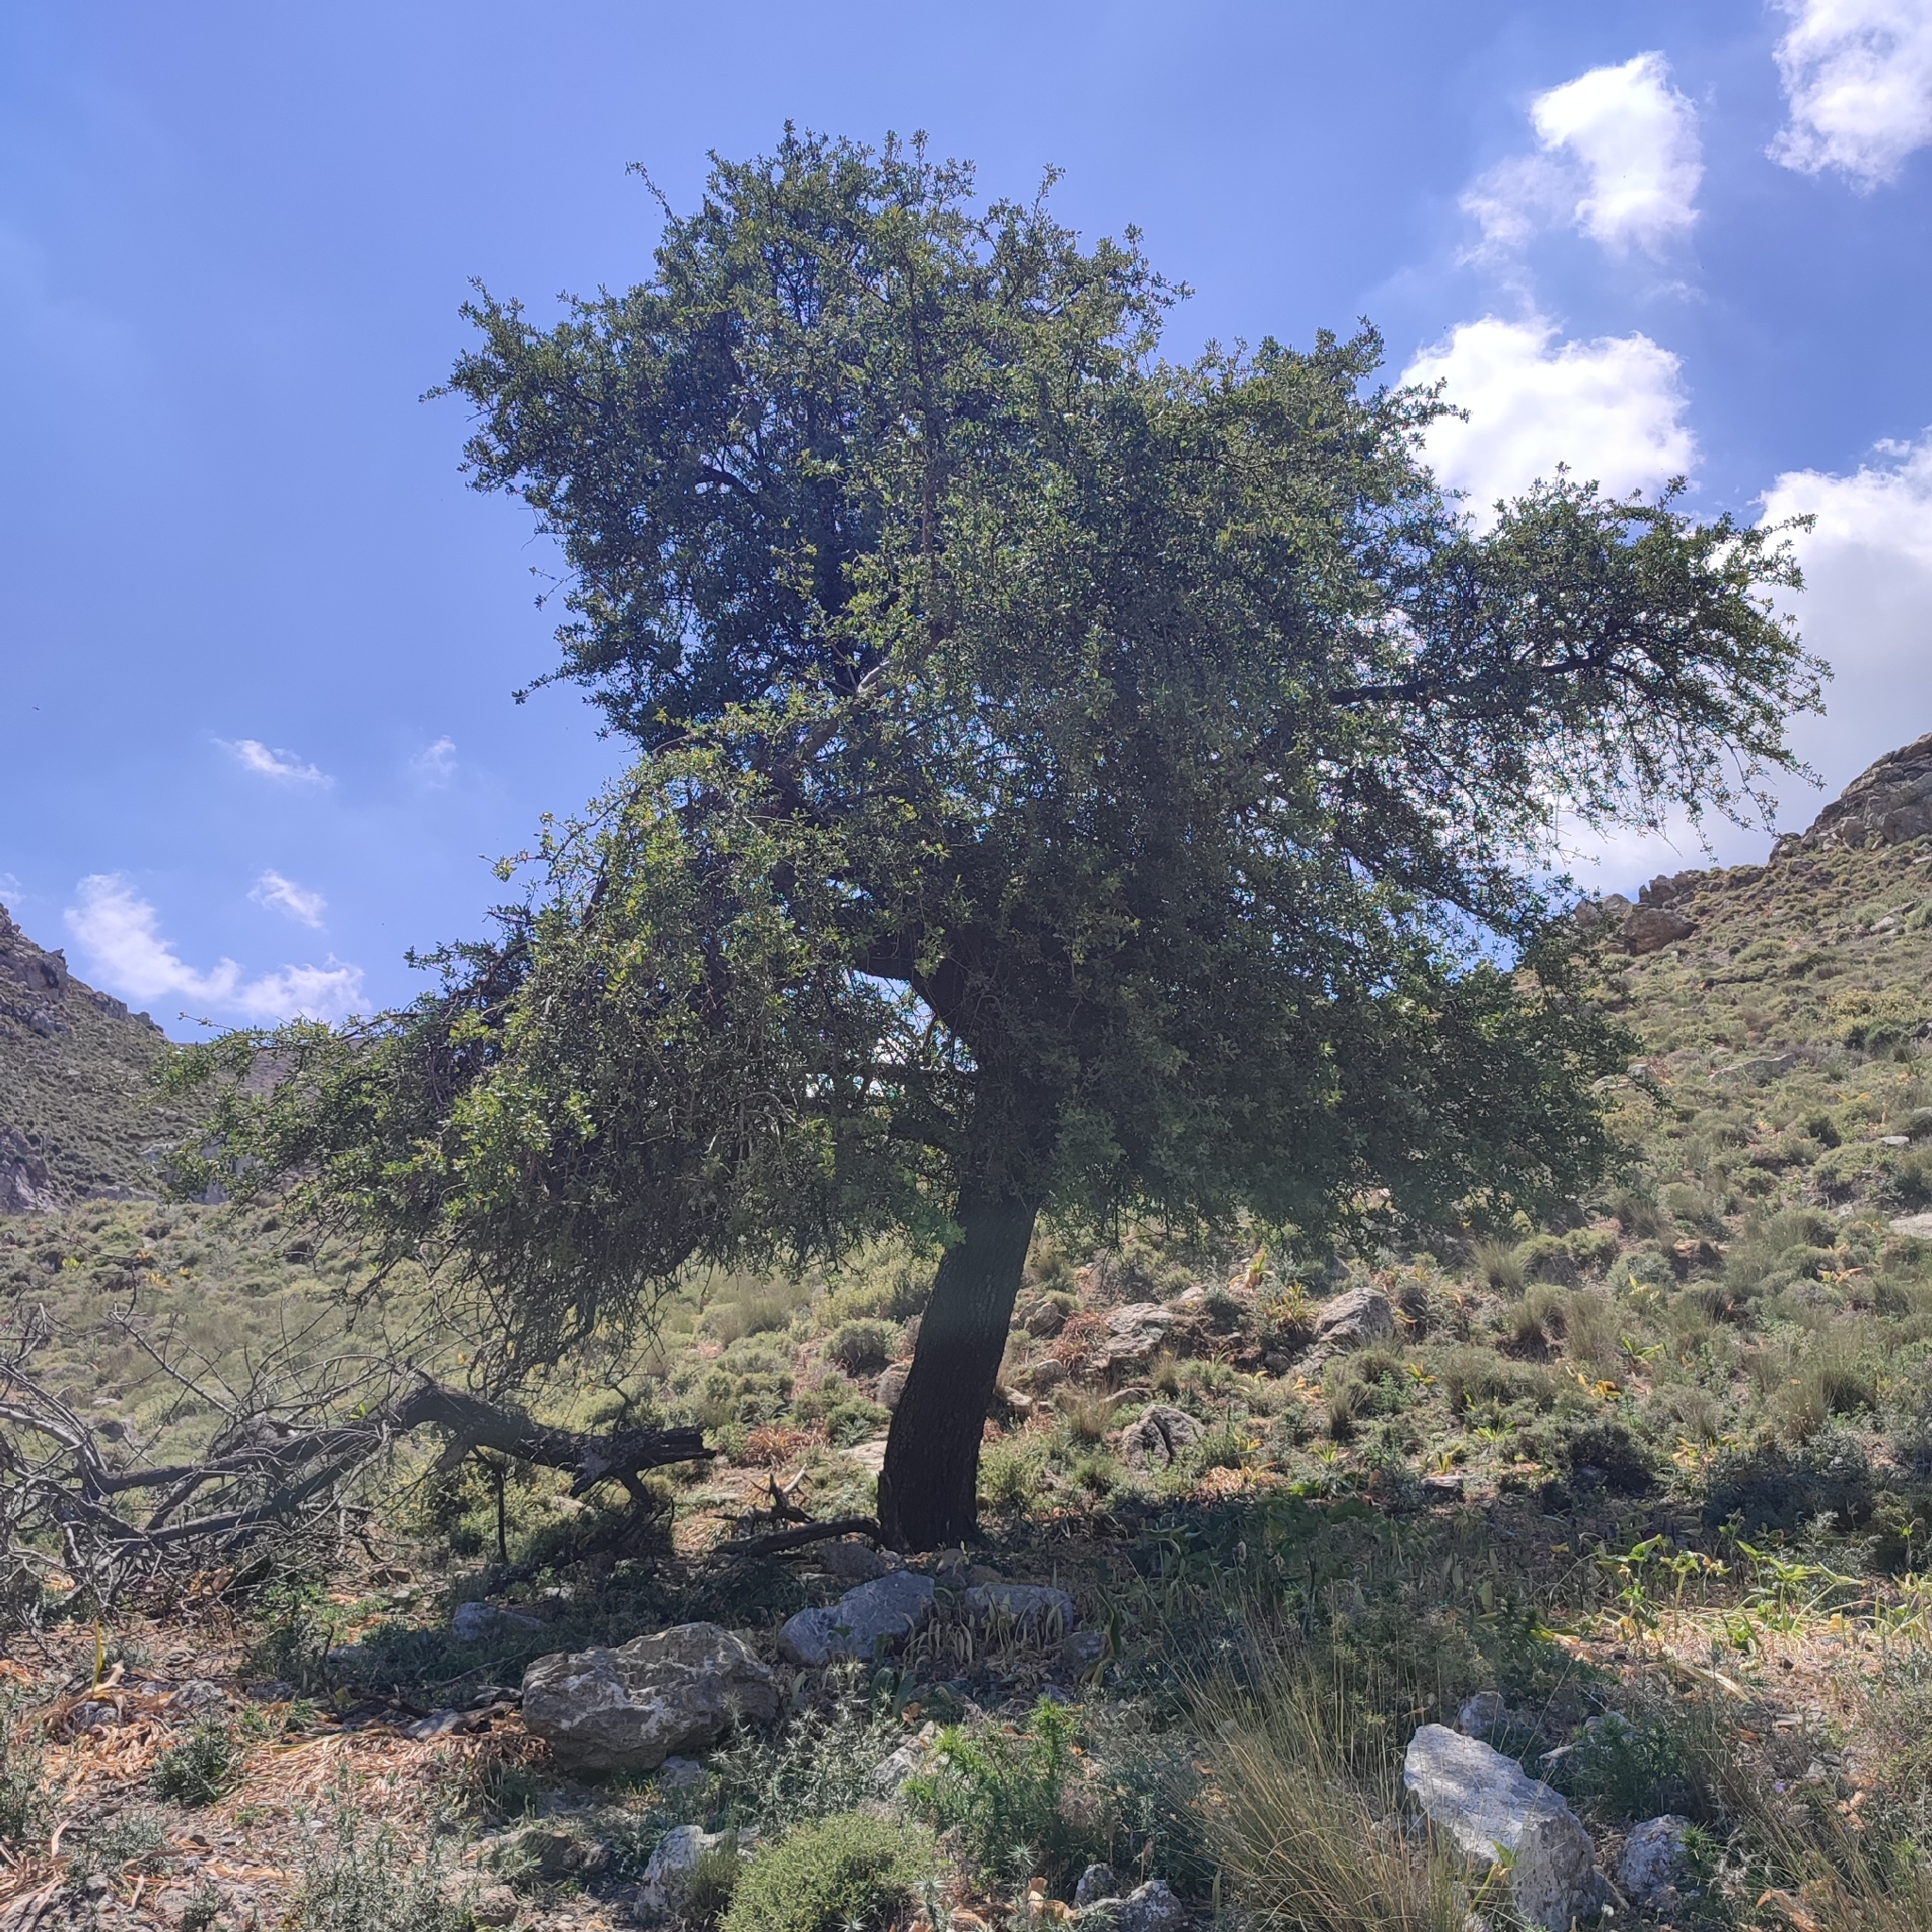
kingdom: Plantae
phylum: Tracheophyta
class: Magnoliopsida
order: Rosales
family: Rosaceae
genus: Pyrus
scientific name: Pyrus spinosa
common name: Almond-leaf pear
